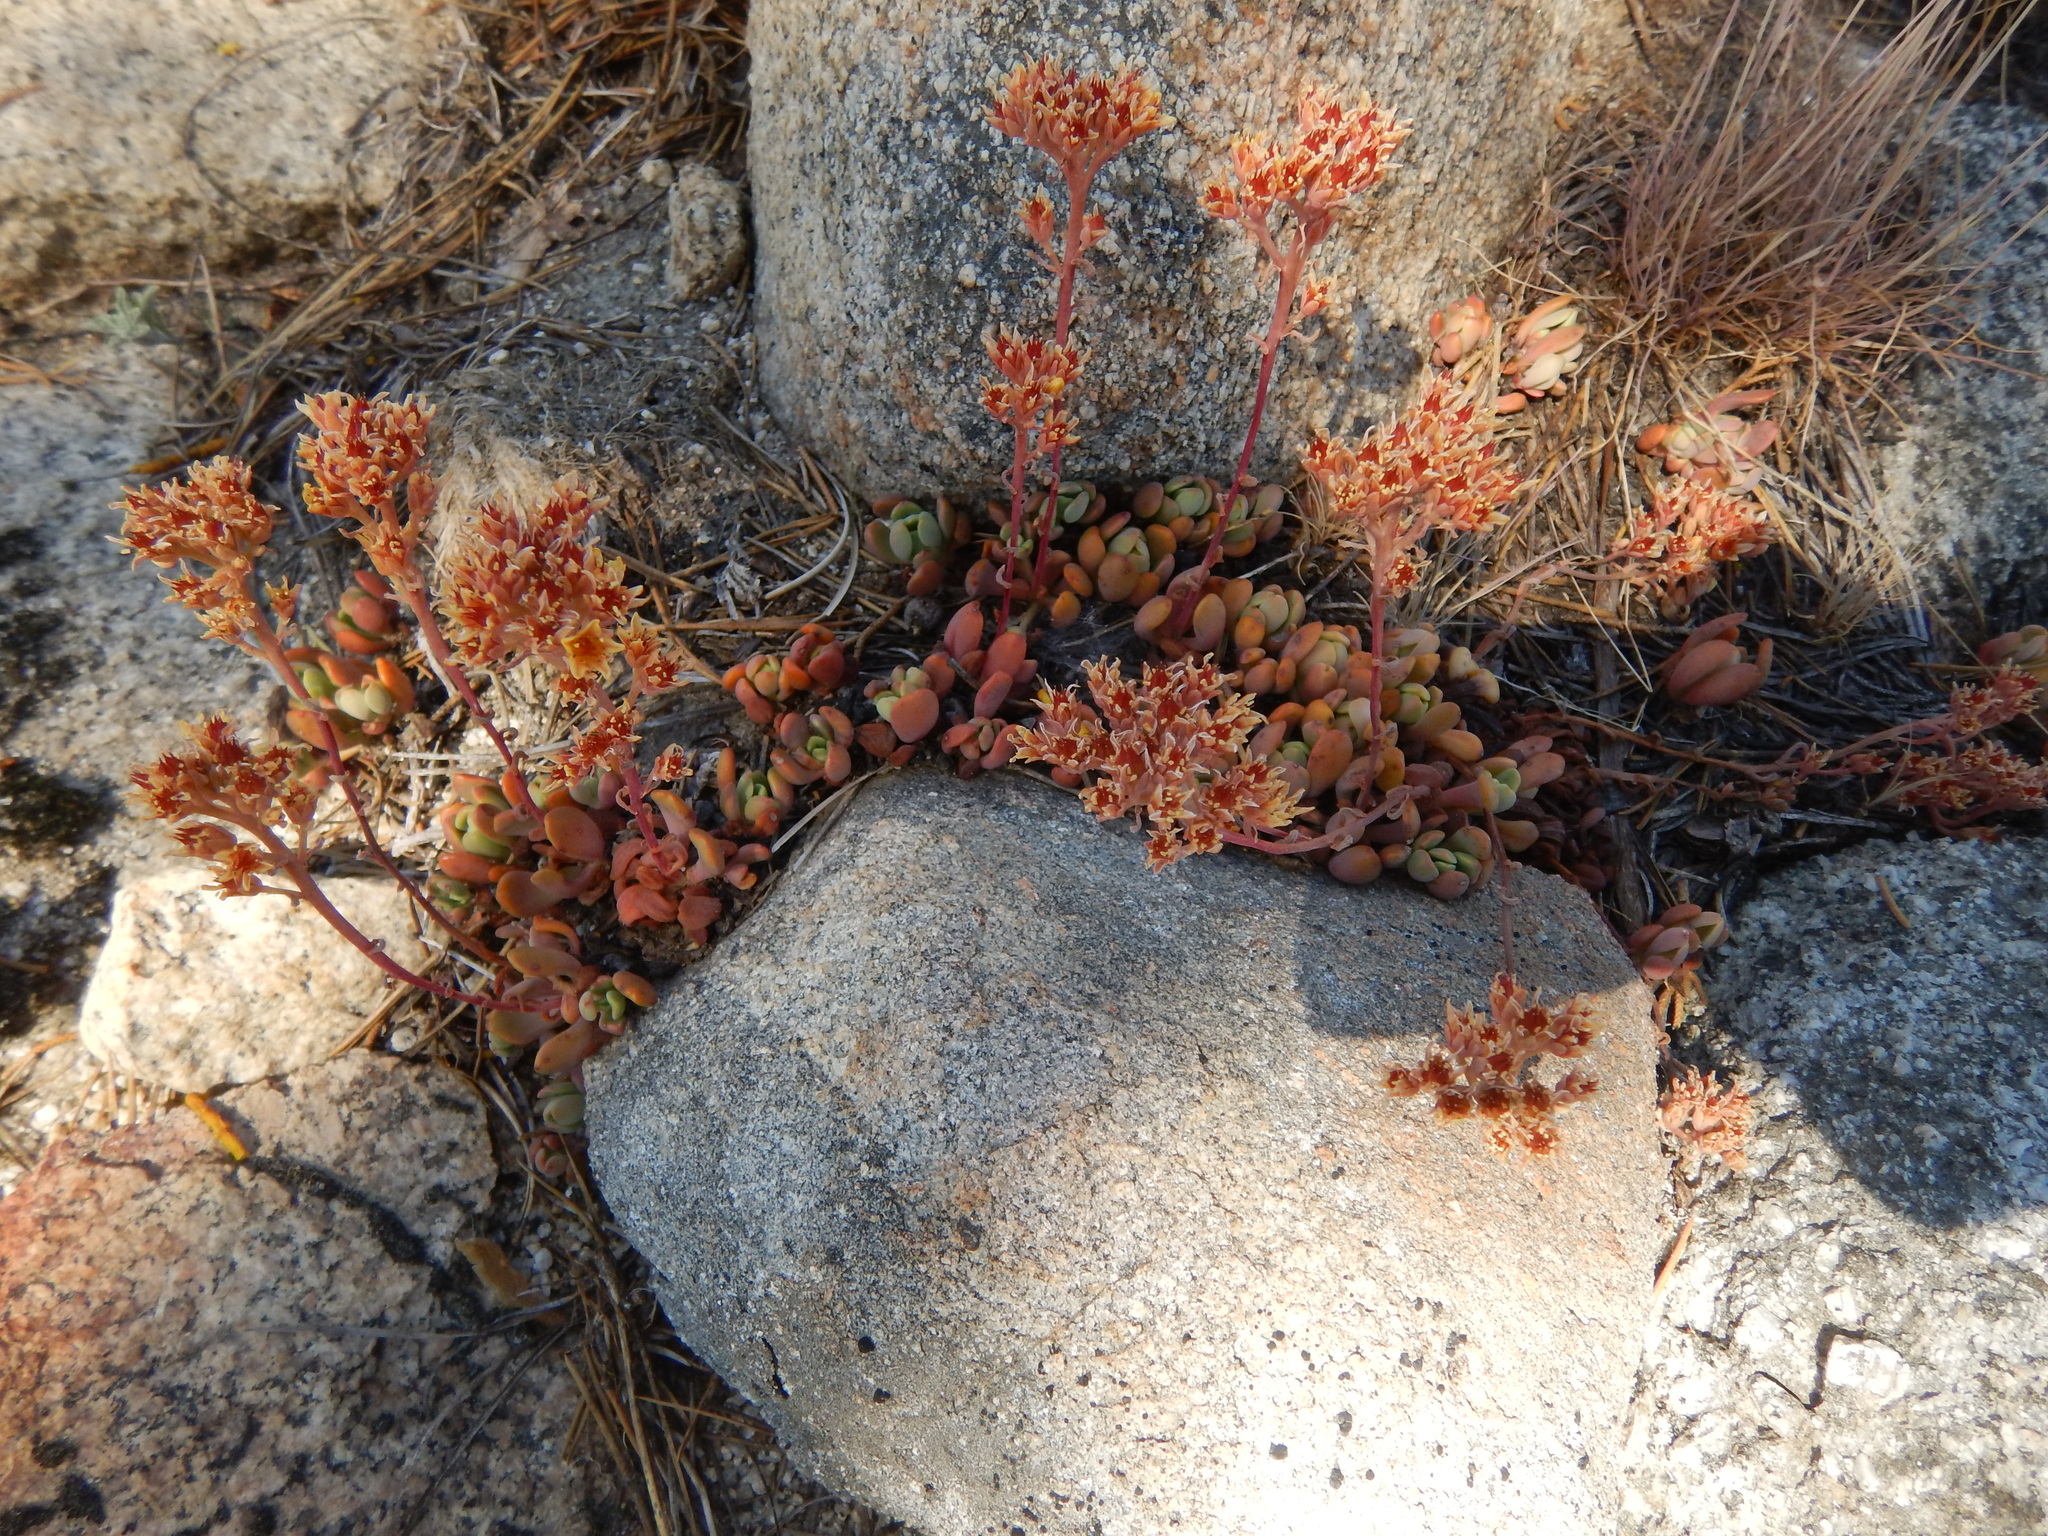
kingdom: Plantae
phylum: Tracheophyta
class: Magnoliopsida
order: Saxifragales
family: Crassulaceae
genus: Sedum
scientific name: Sedum obtusatum
